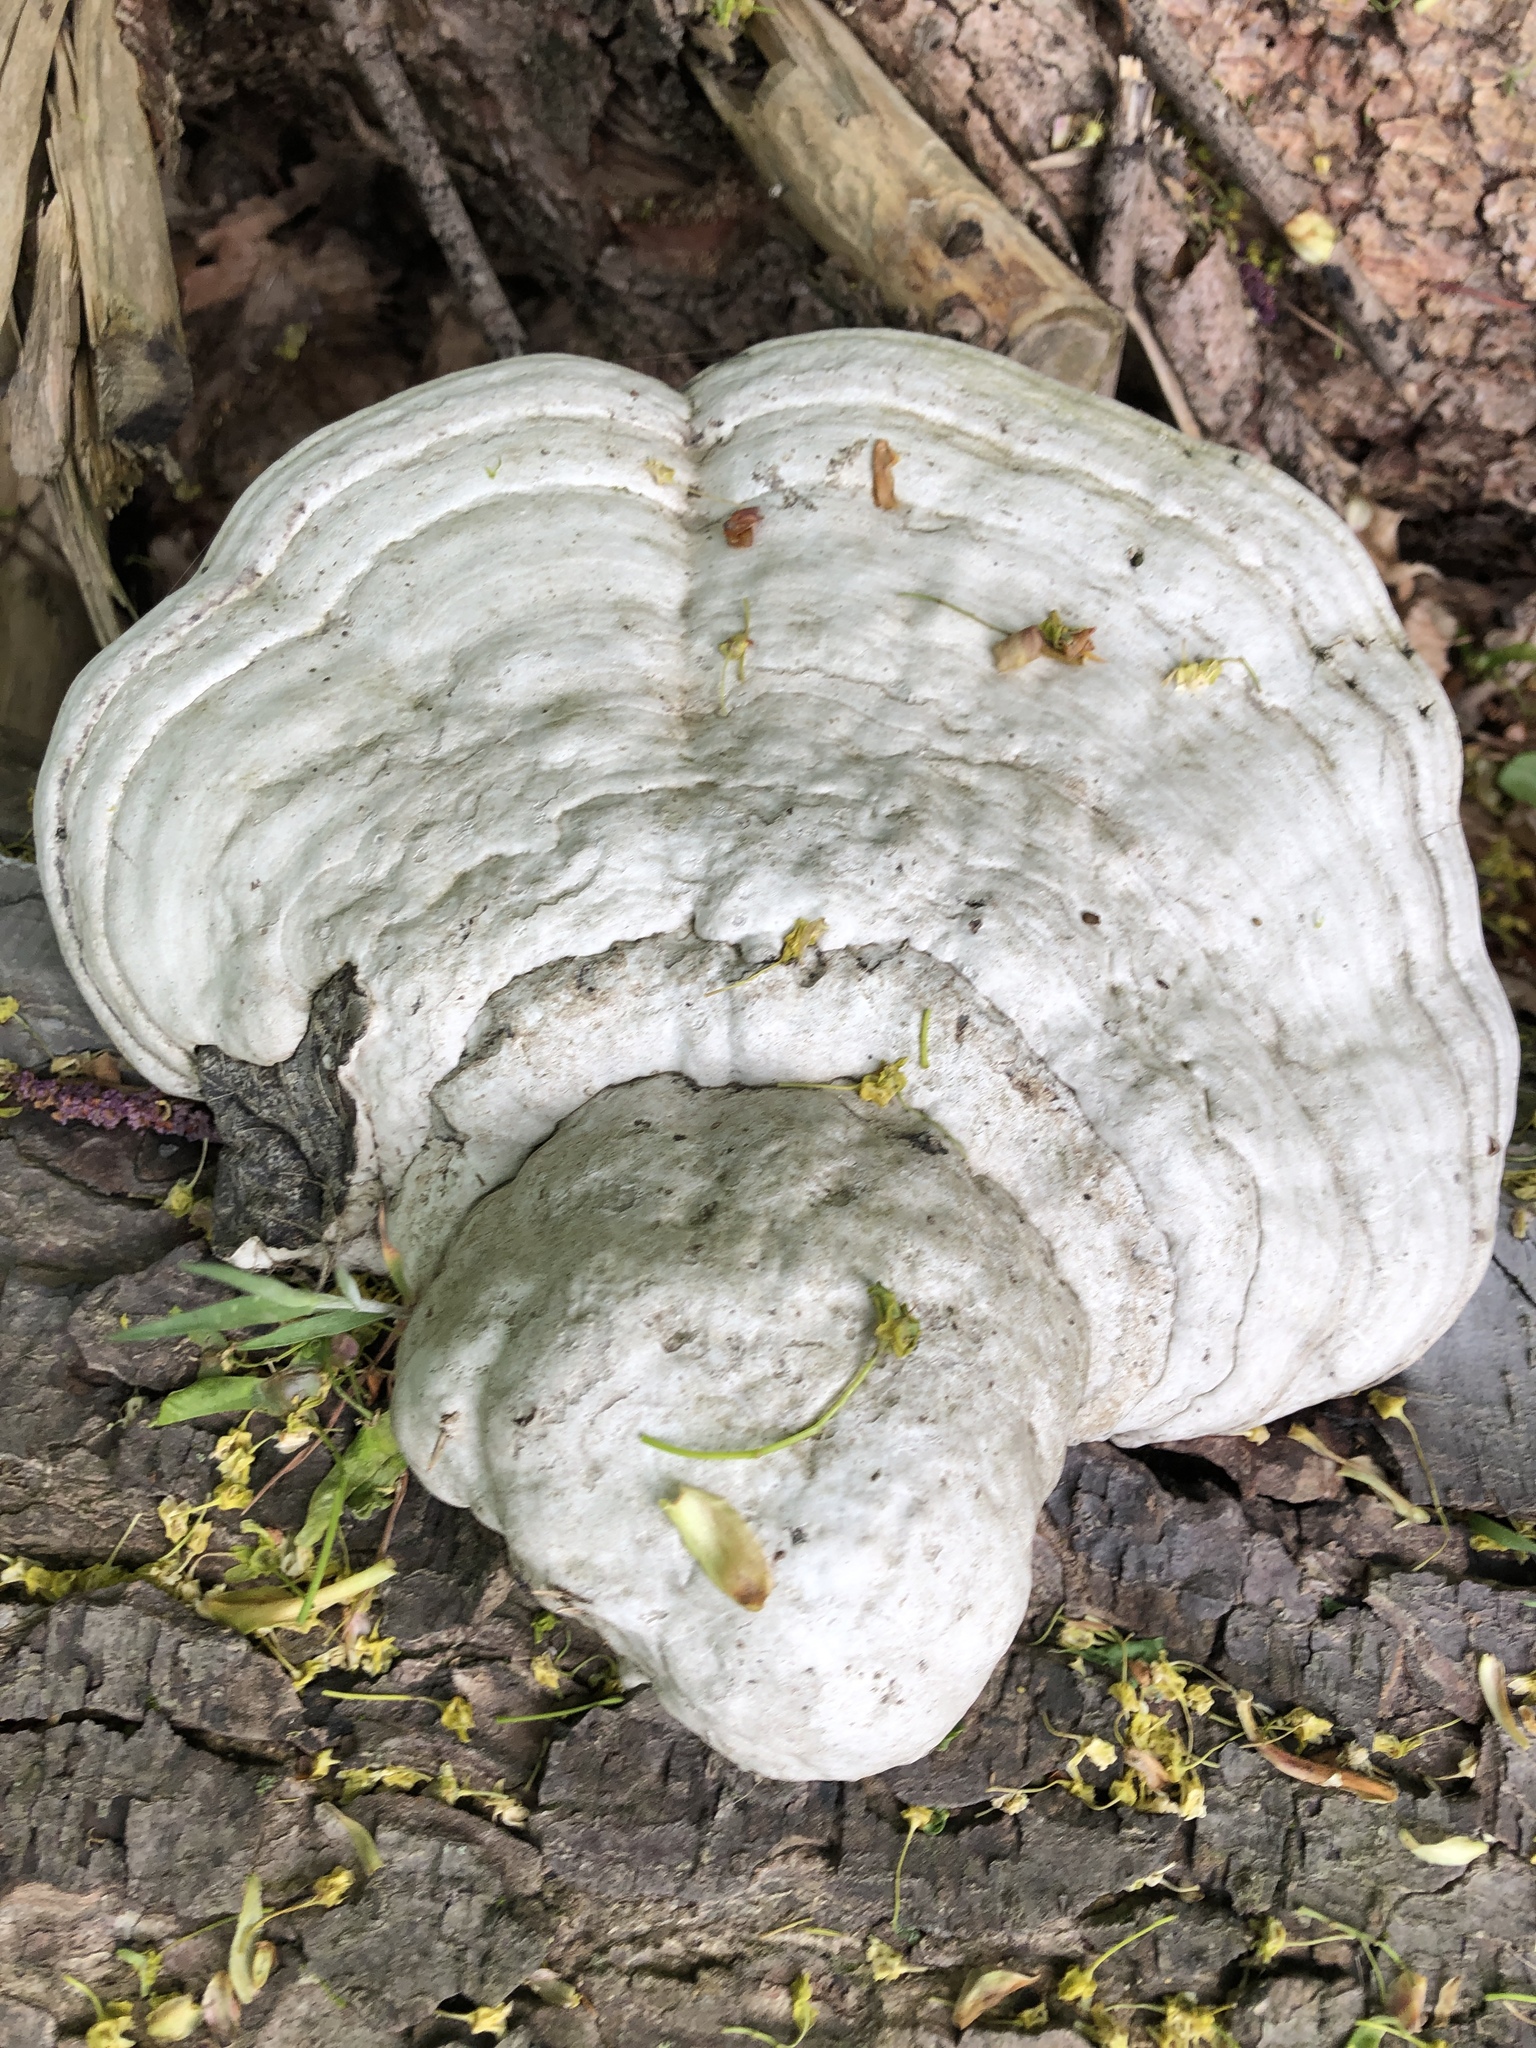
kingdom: Fungi
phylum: Basidiomycota
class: Agaricomycetes
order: Polyporales
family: Polyporaceae
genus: Fomes
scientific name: Fomes fomentarius
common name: Hoof fungus
